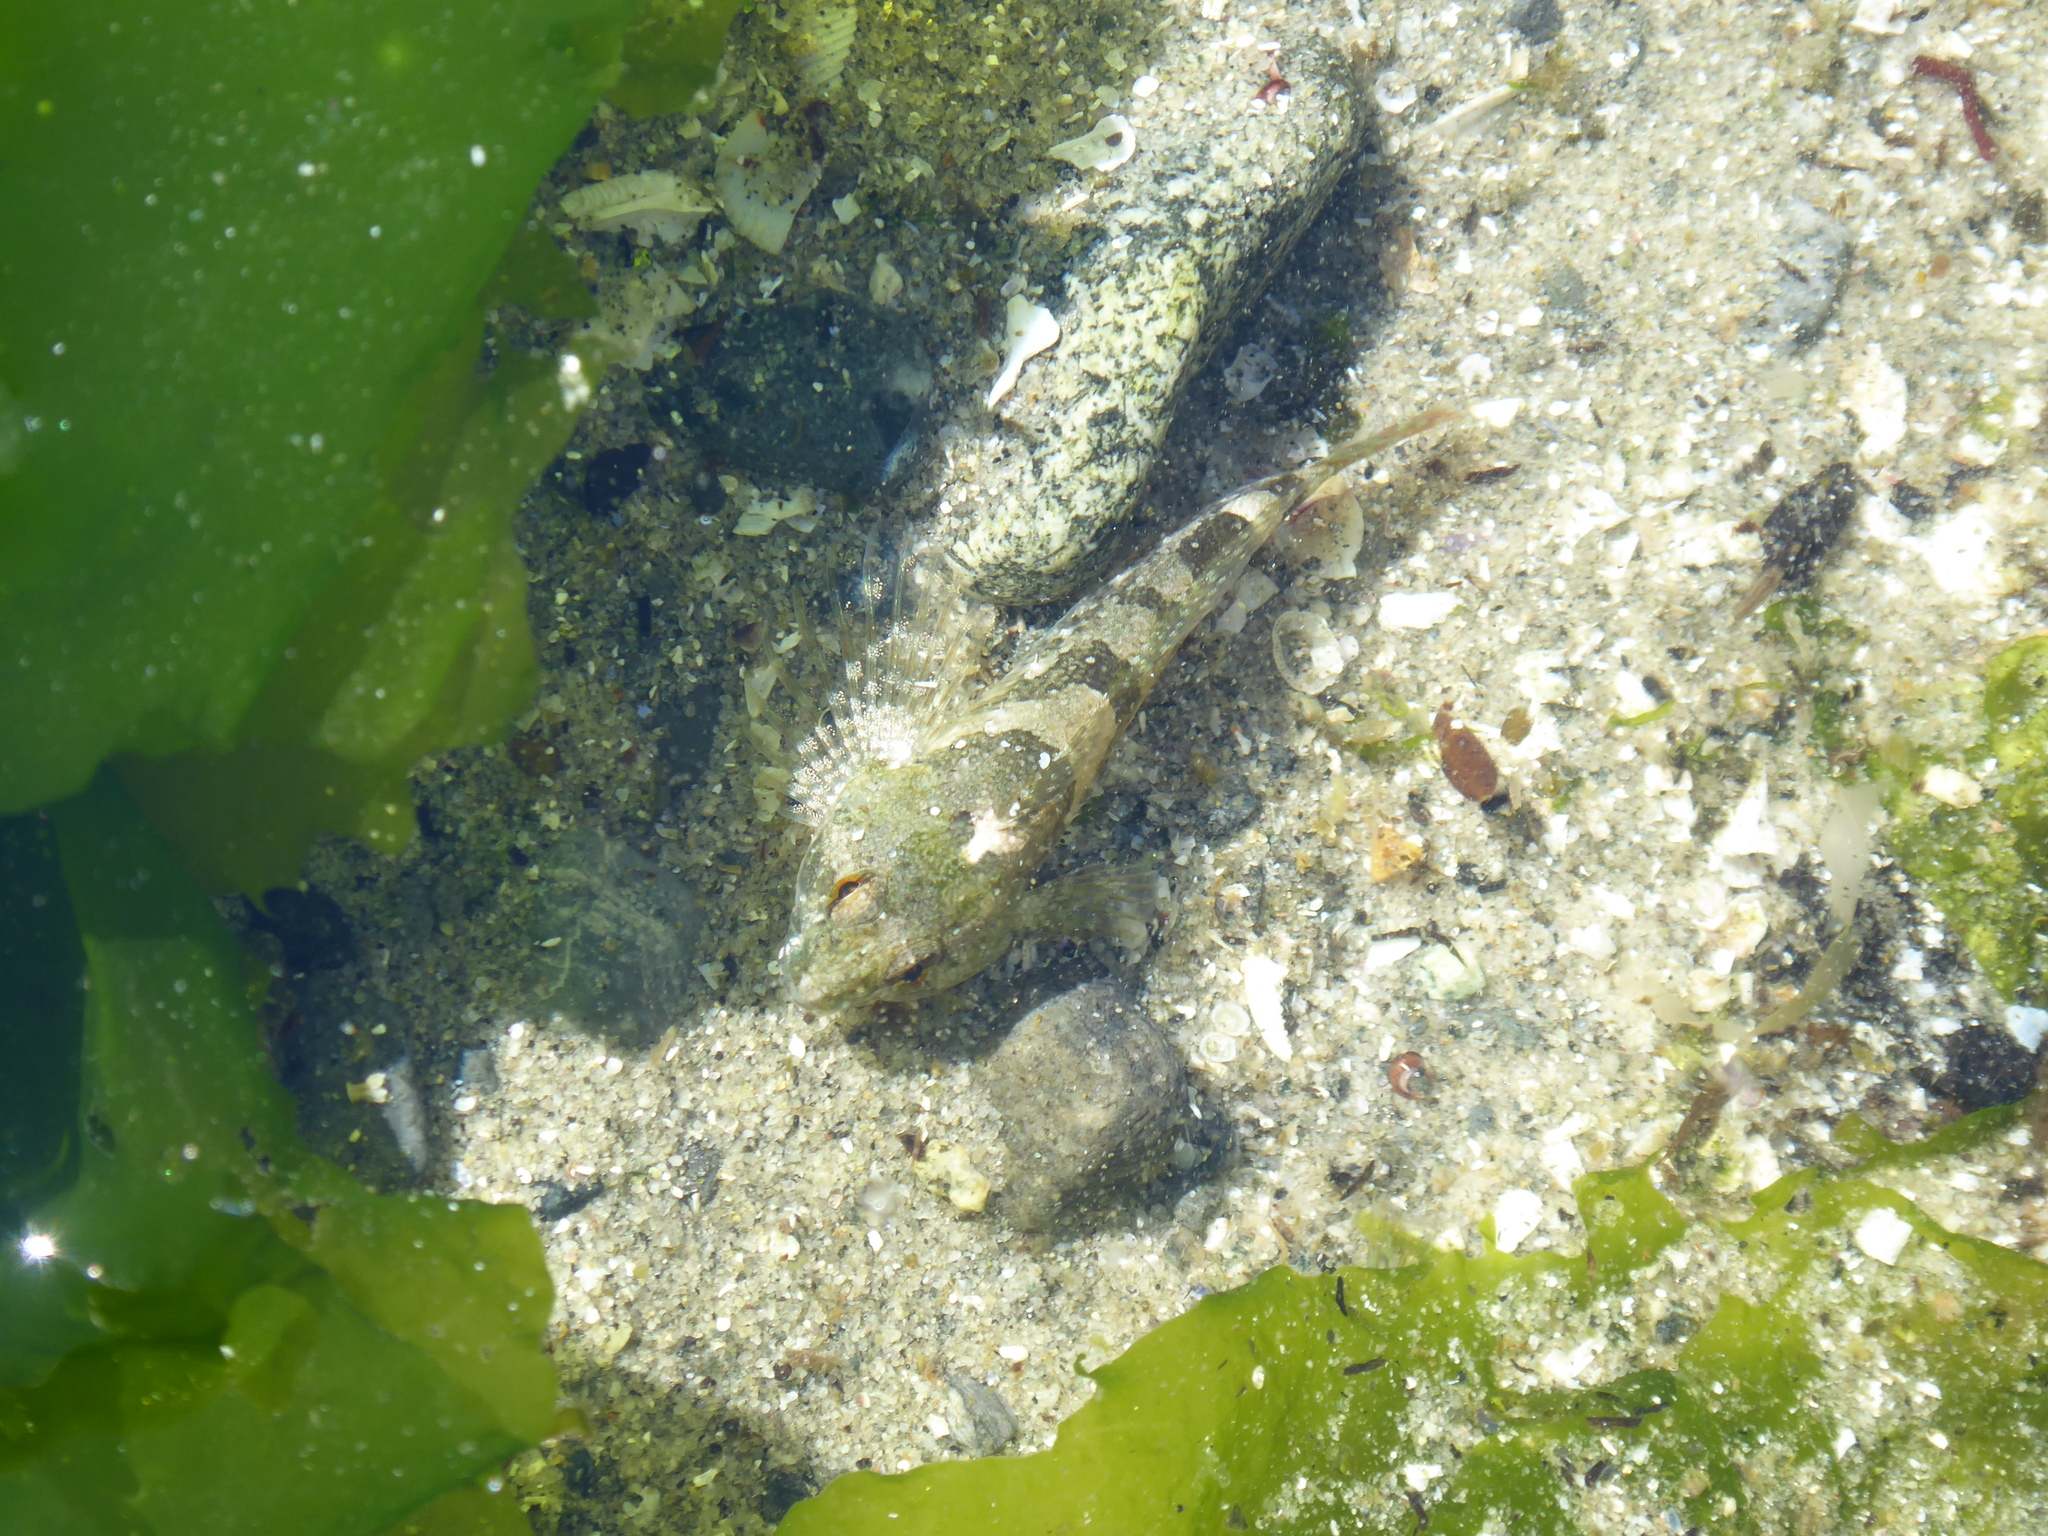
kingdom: Animalia
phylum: Chordata
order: Scorpaeniformes
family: Cottidae
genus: Oligocottus
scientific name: Oligocottus maculosus
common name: Tidepool sculpin
